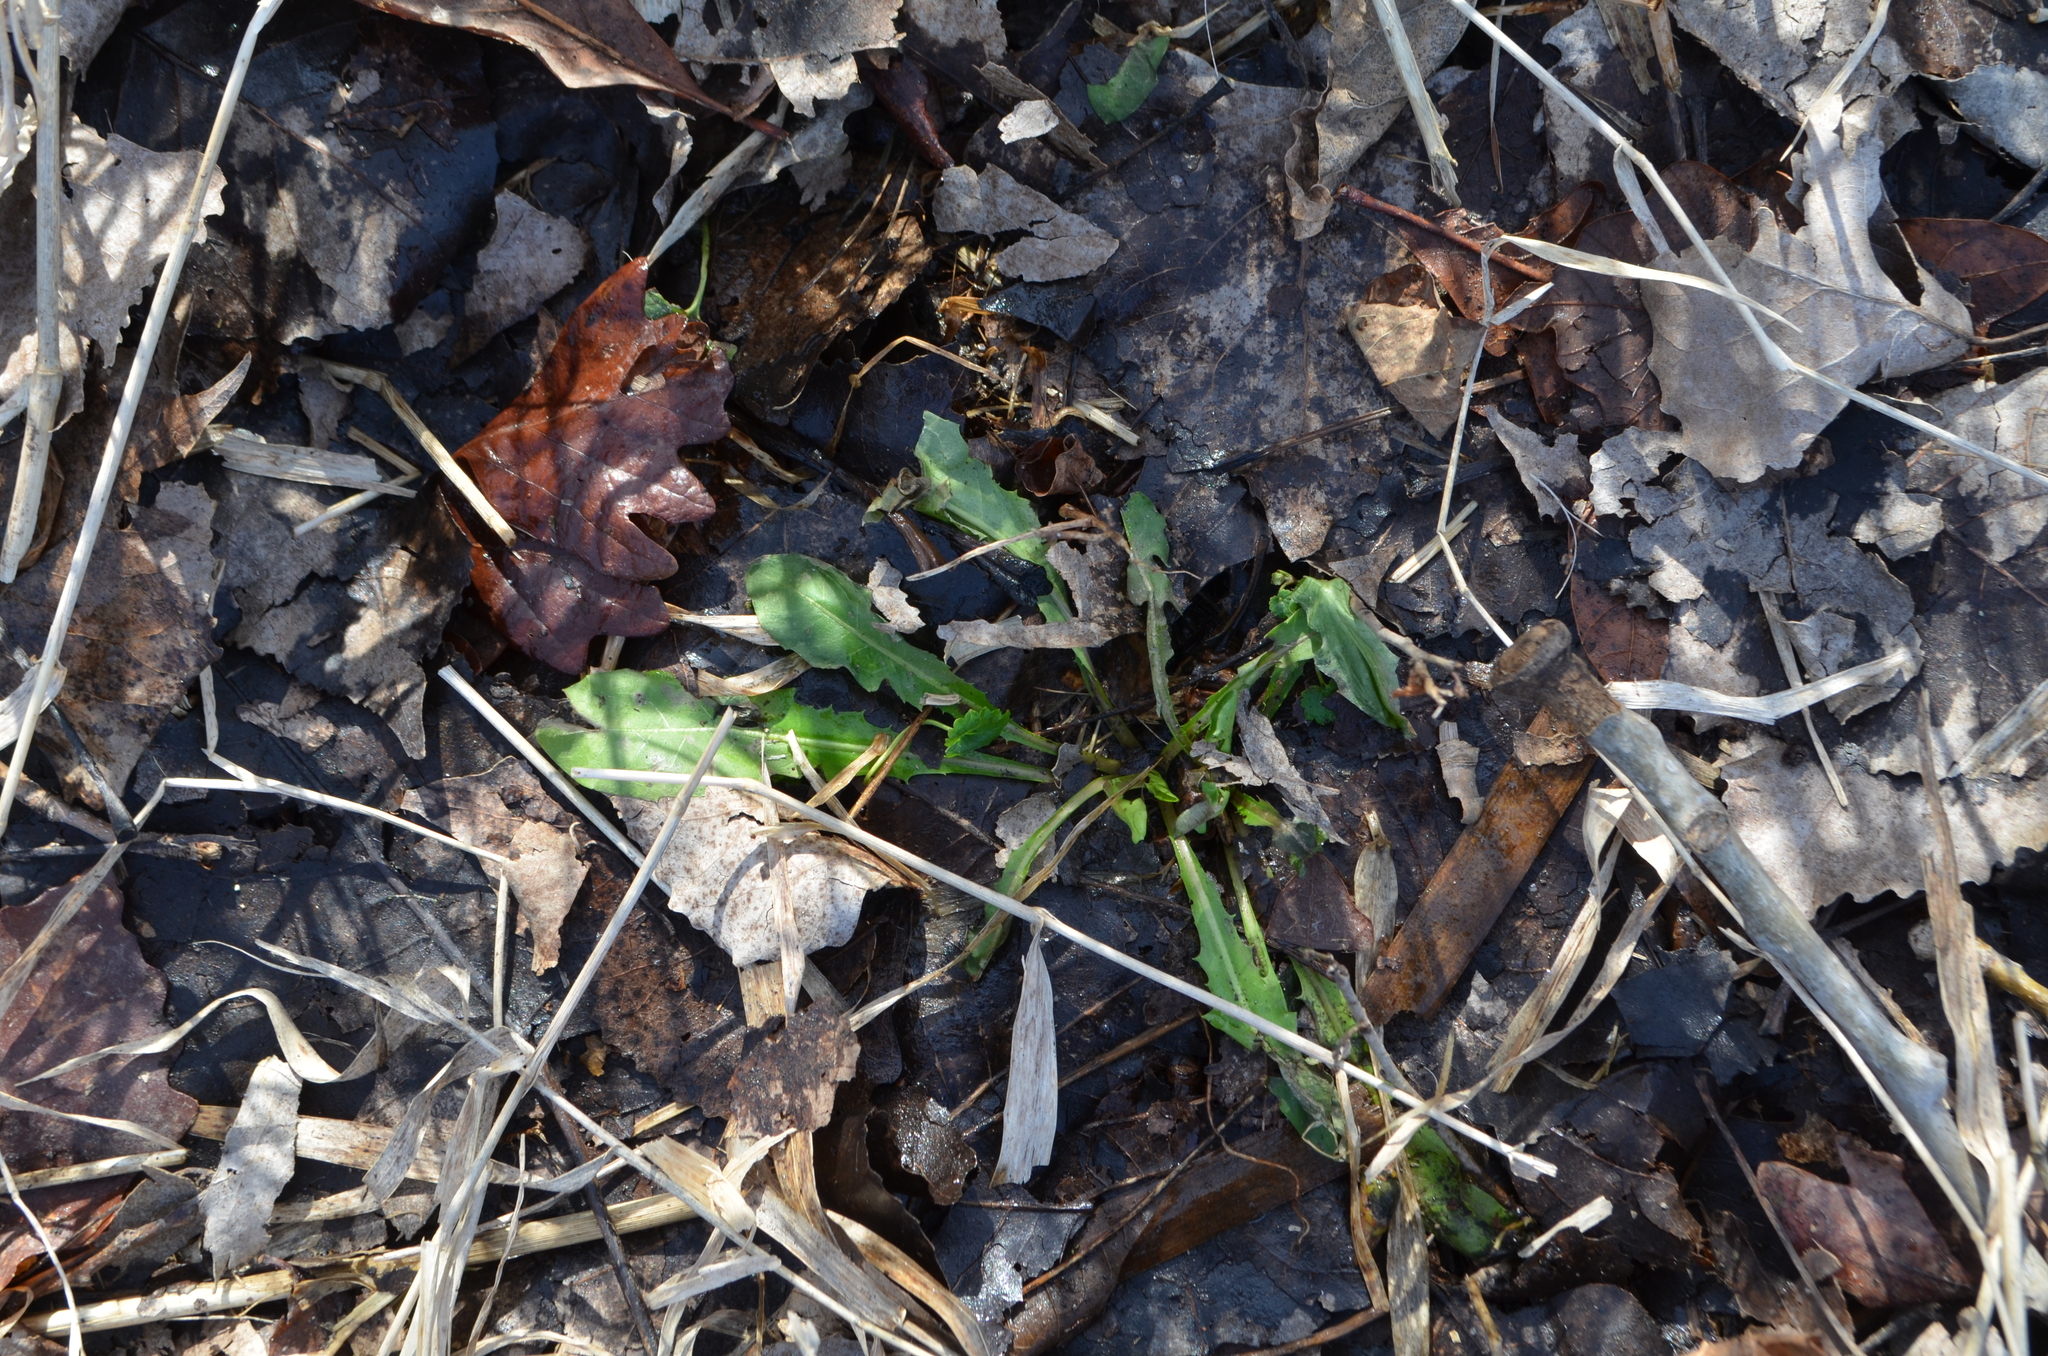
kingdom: Plantae
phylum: Tracheophyta
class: Magnoliopsida
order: Asterales
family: Asteraceae
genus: Taraxacum
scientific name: Taraxacum officinale
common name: Common dandelion
